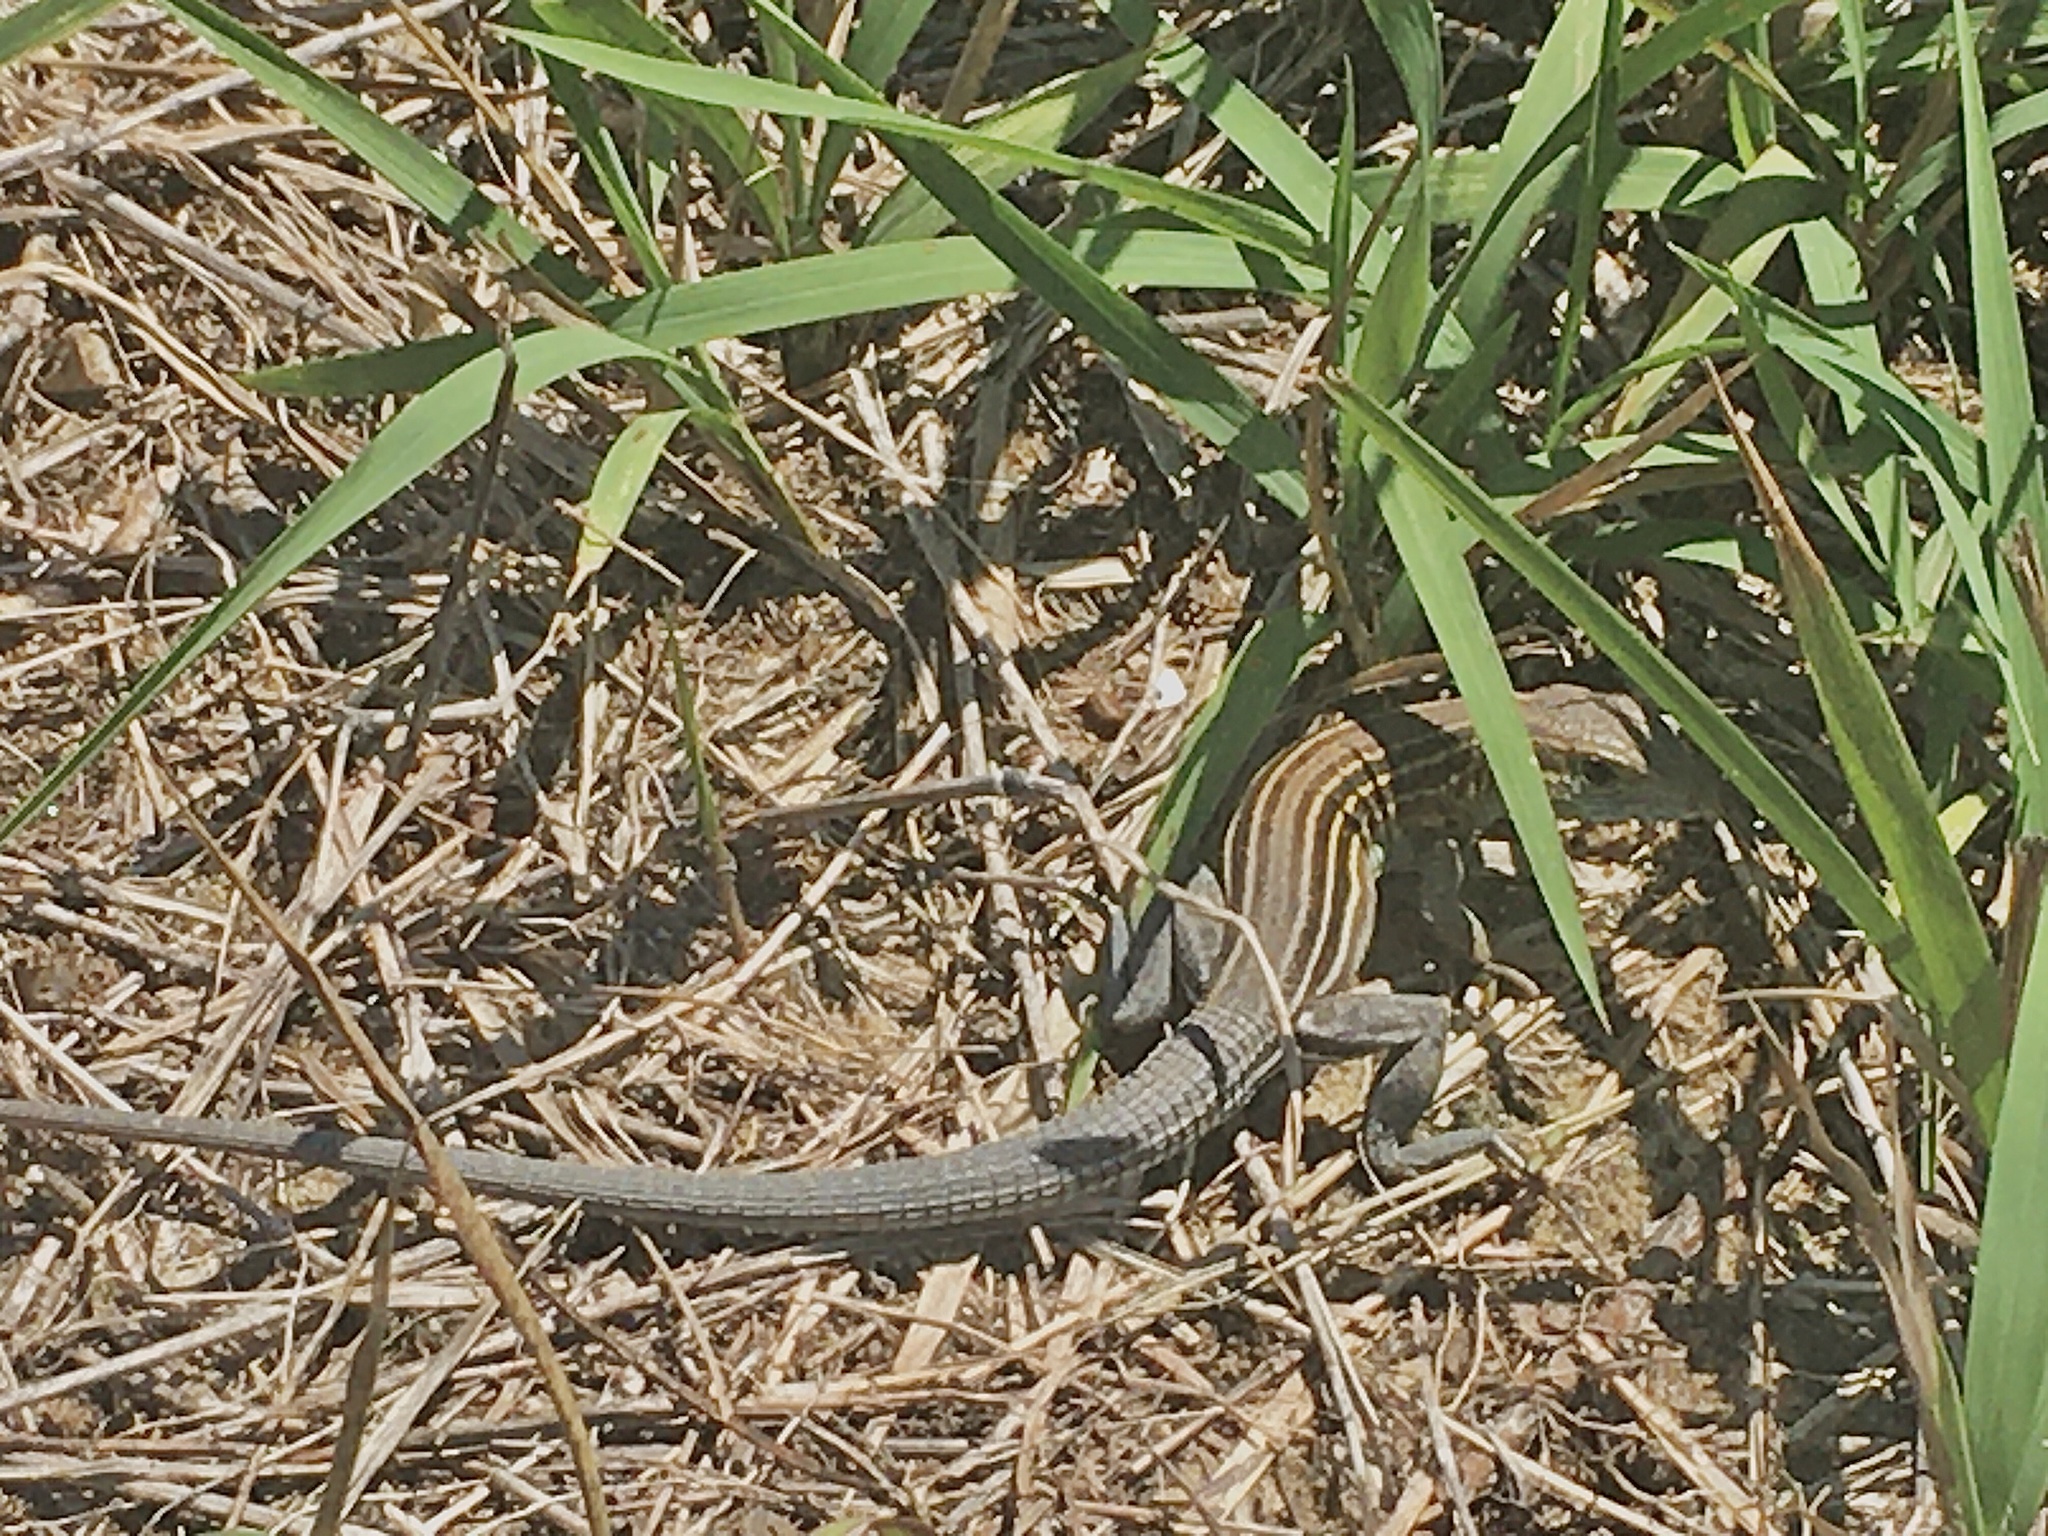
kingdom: Animalia
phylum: Chordata
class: Squamata
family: Teiidae
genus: Aspidoscelis
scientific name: Aspidoscelis sexlineatus
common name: Six-lined racerunner
